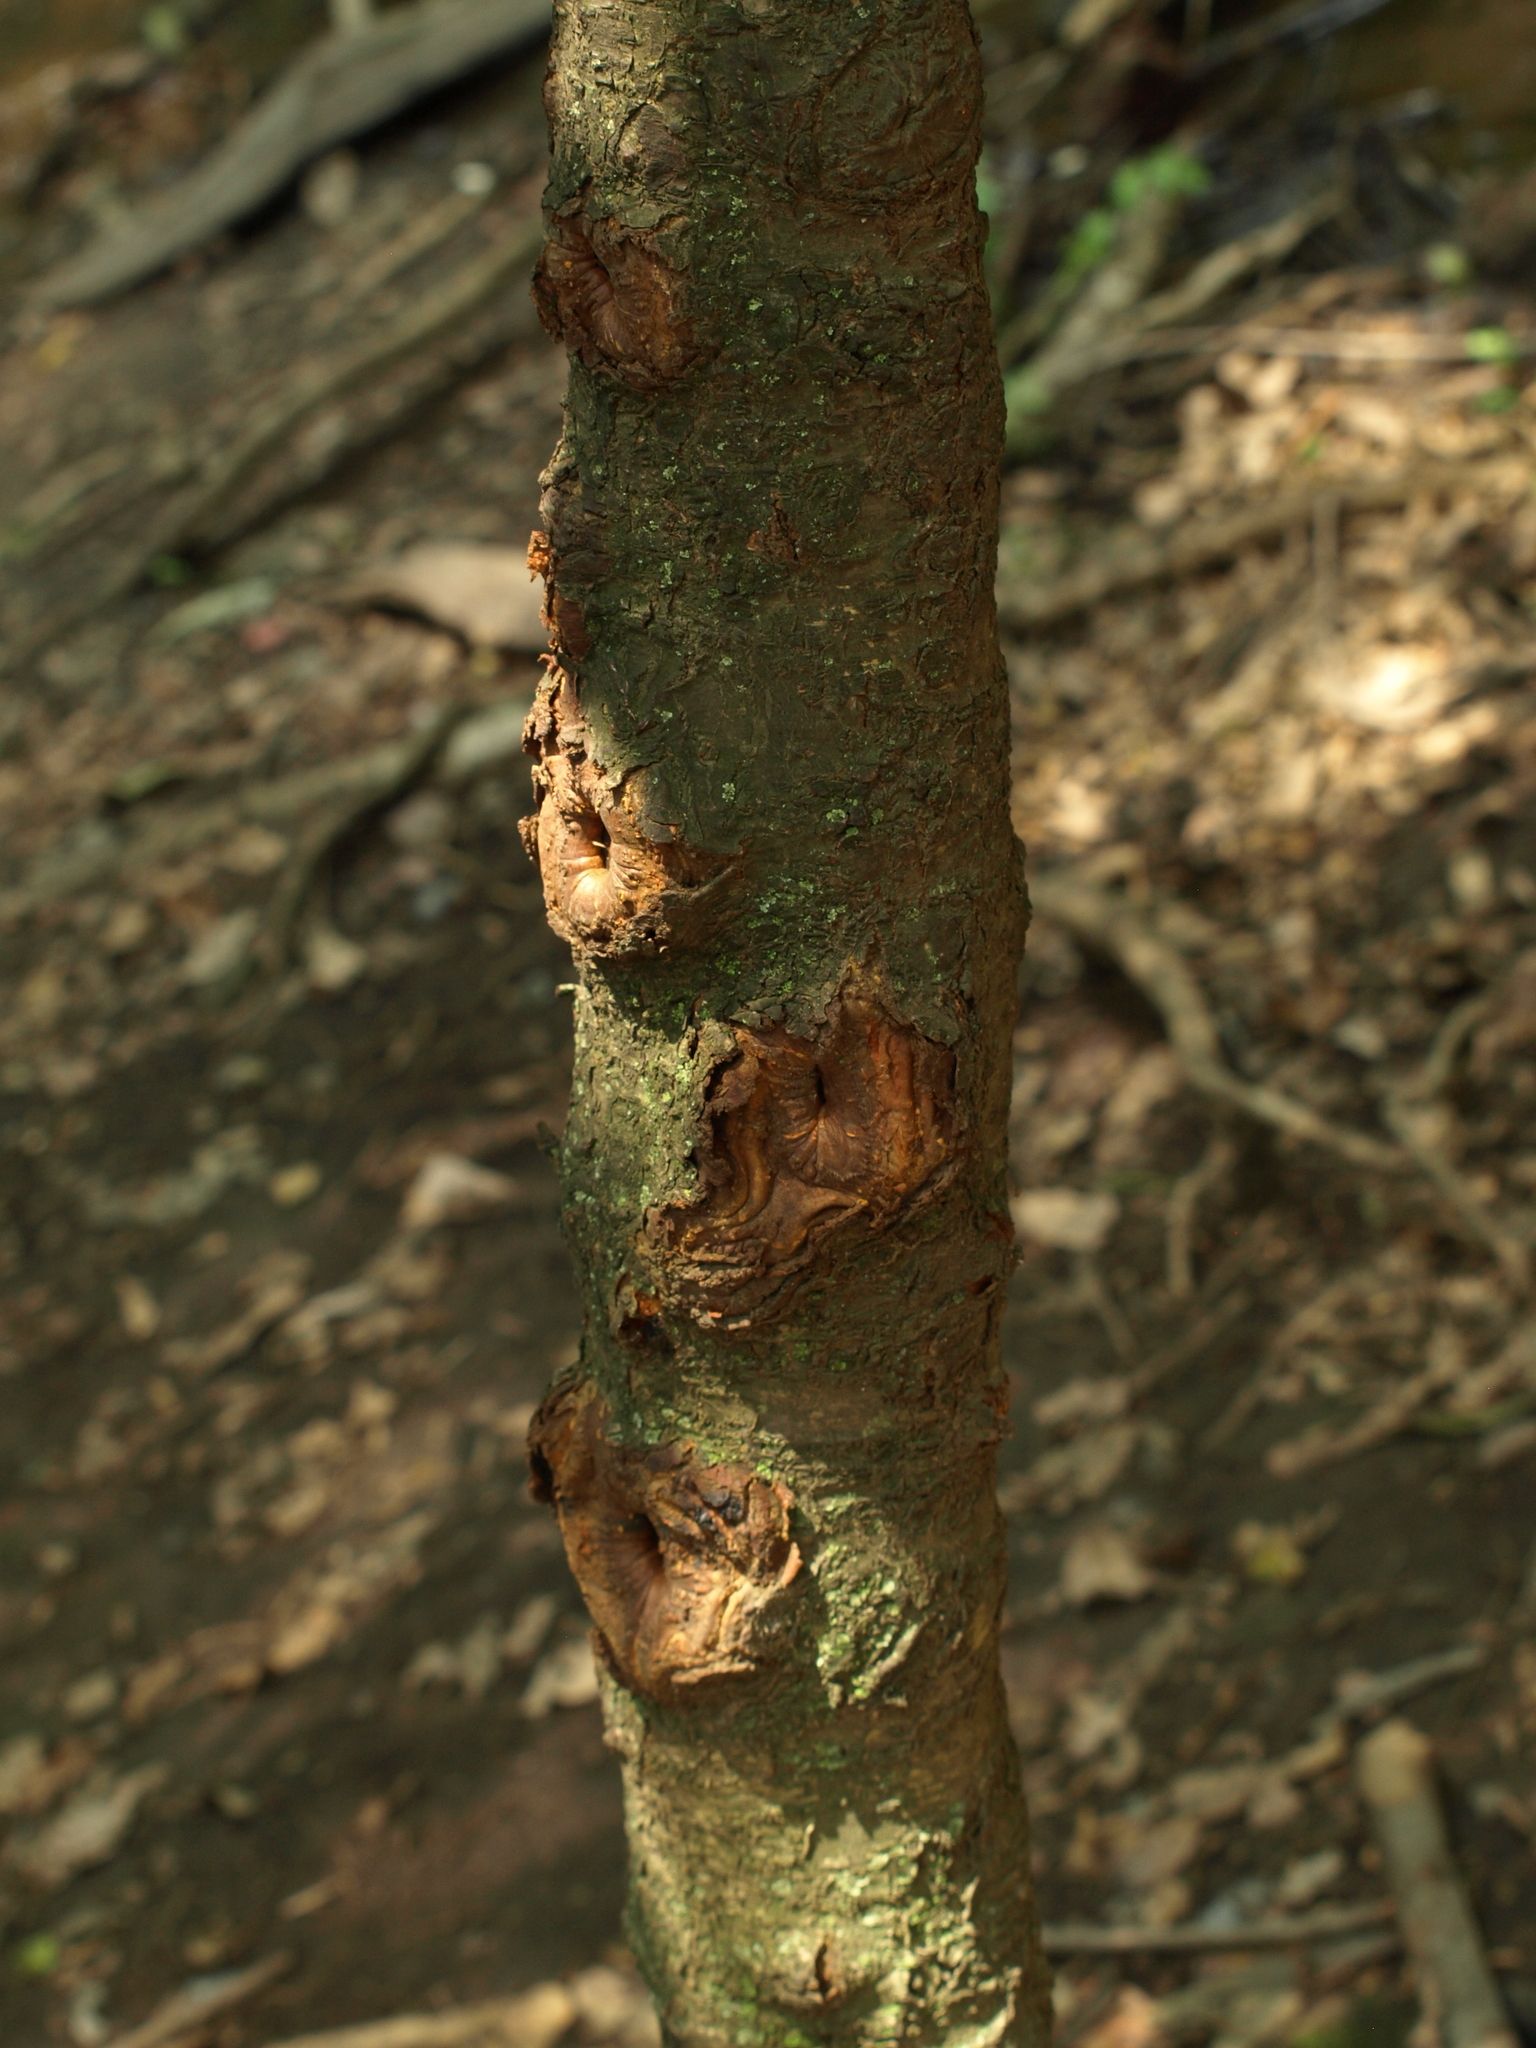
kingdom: Plantae
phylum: Tracheophyta
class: Magnoliopsida
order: Rosales
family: Rosaceae
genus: Prunus
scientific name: Prunus serotina
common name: Black cherry
